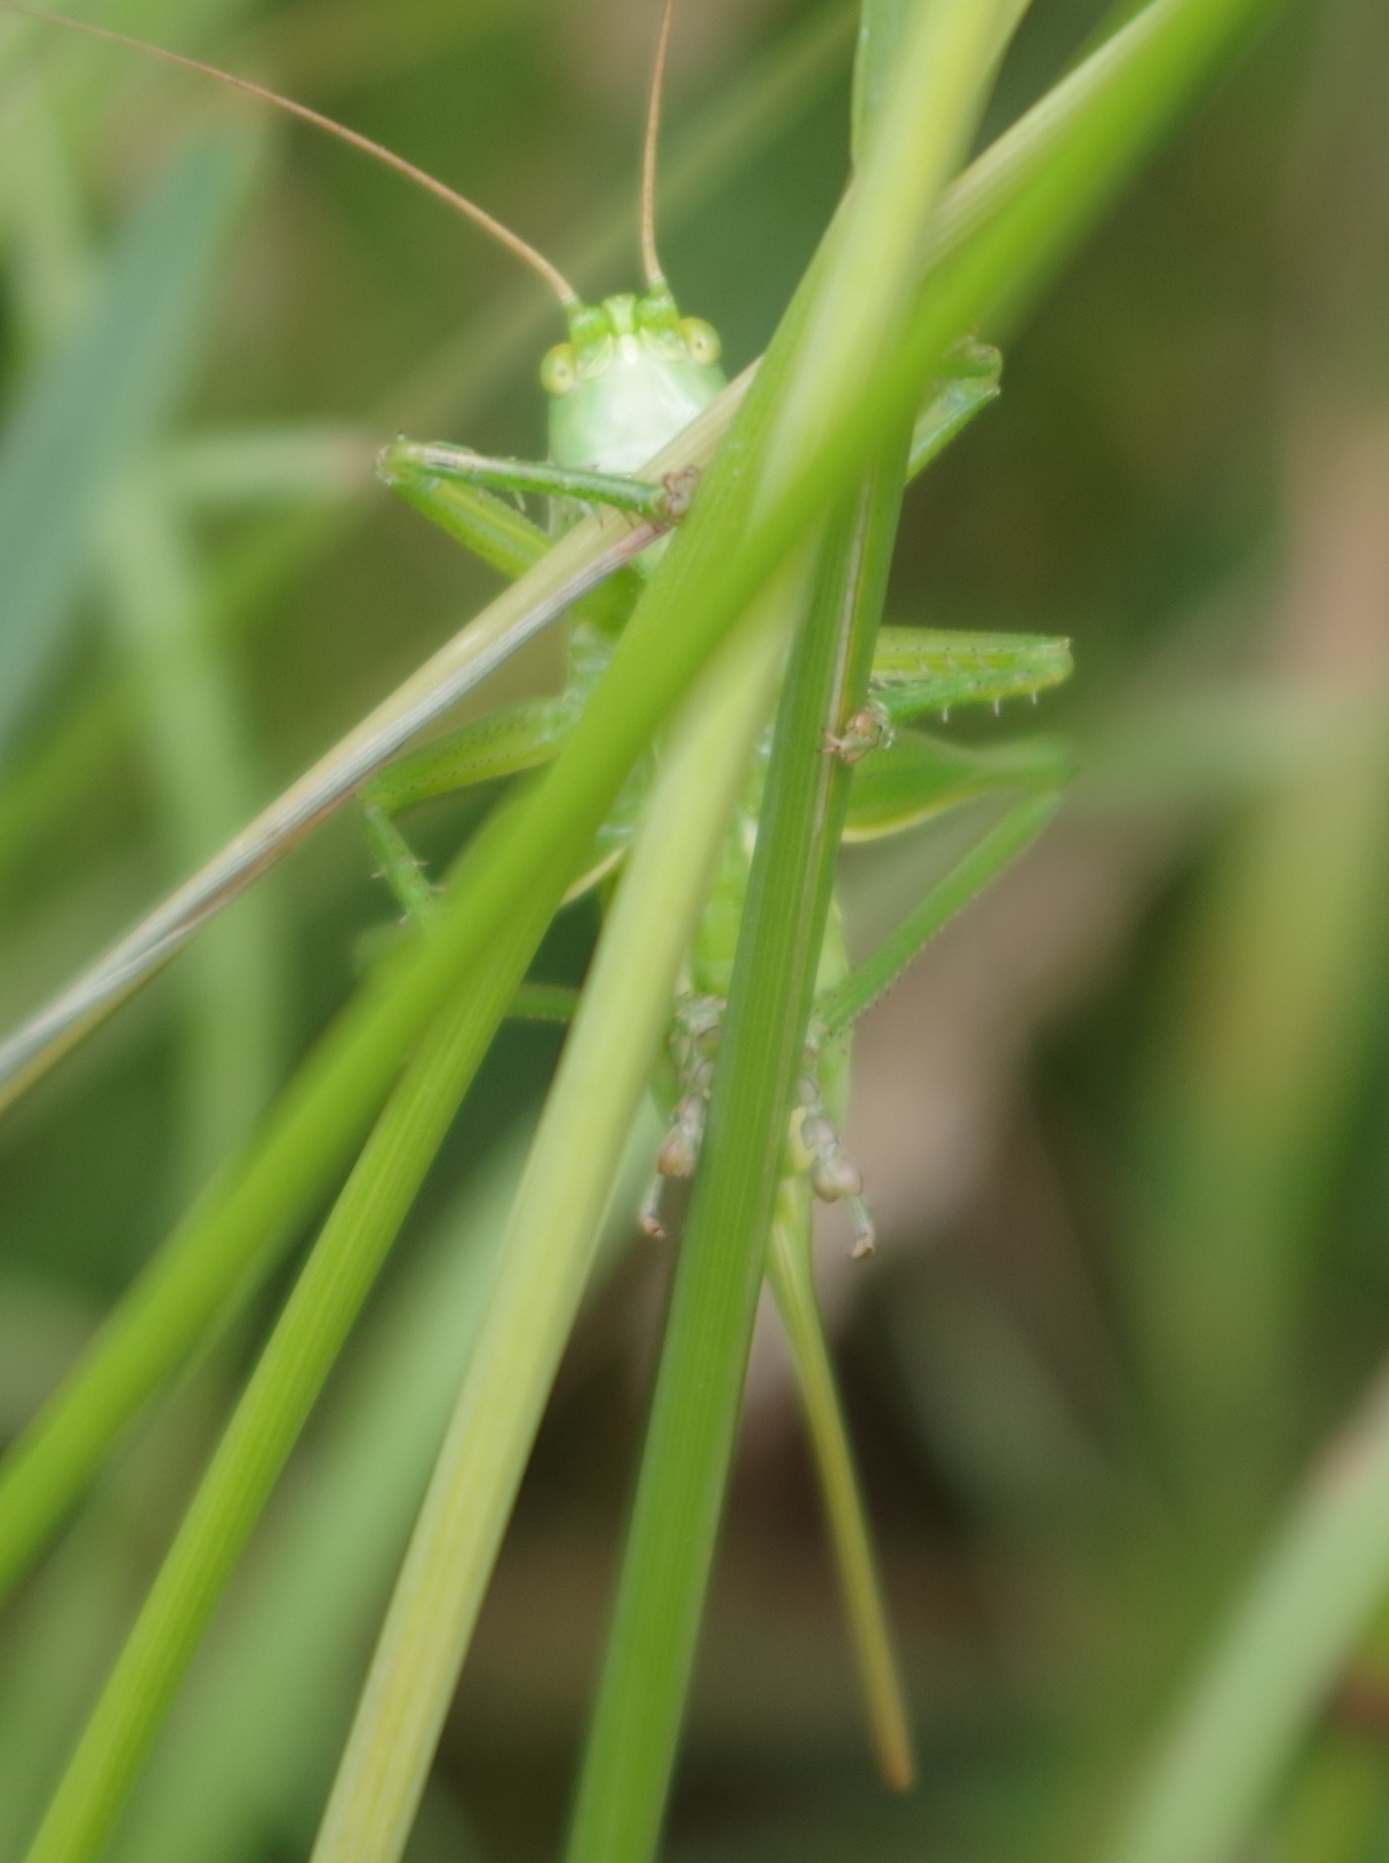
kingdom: Animalia
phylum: Arthropoda
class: Insecta
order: Orthoptera
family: Tettigoniidae
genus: Tettigonia
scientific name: Tettigonia viridissima
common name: Great green bush-cricket
